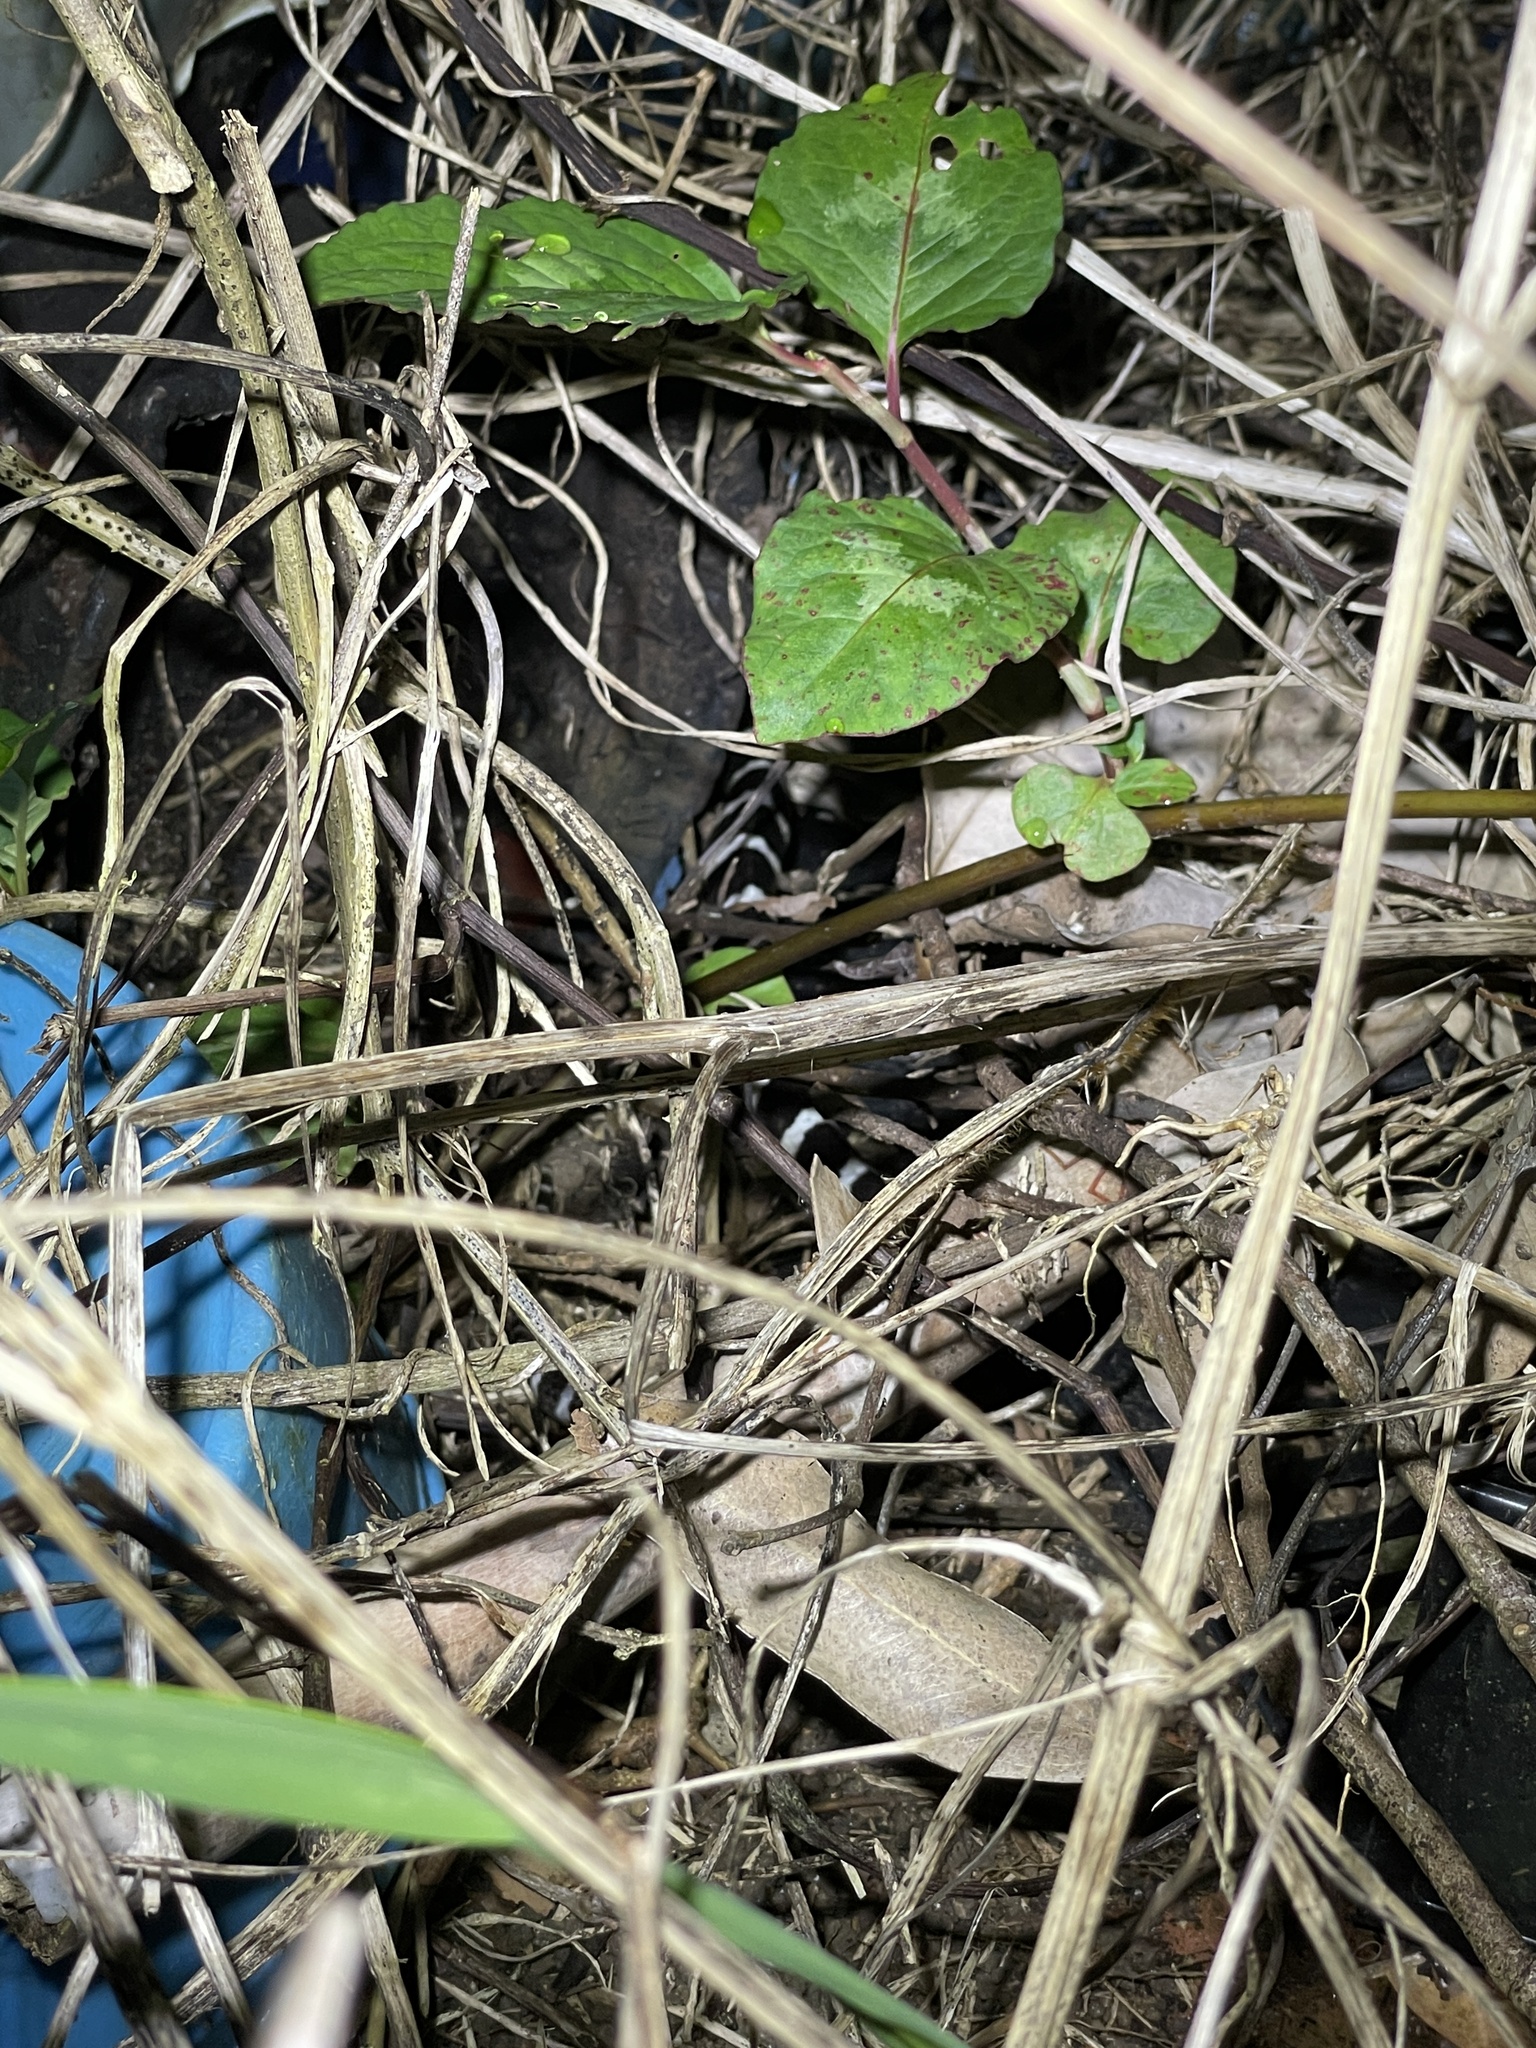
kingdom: Animalia
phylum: Chordata
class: Squamata
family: Elapidae
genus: Bungarus
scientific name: Bungarus multicinctus
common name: Many-banded krait
